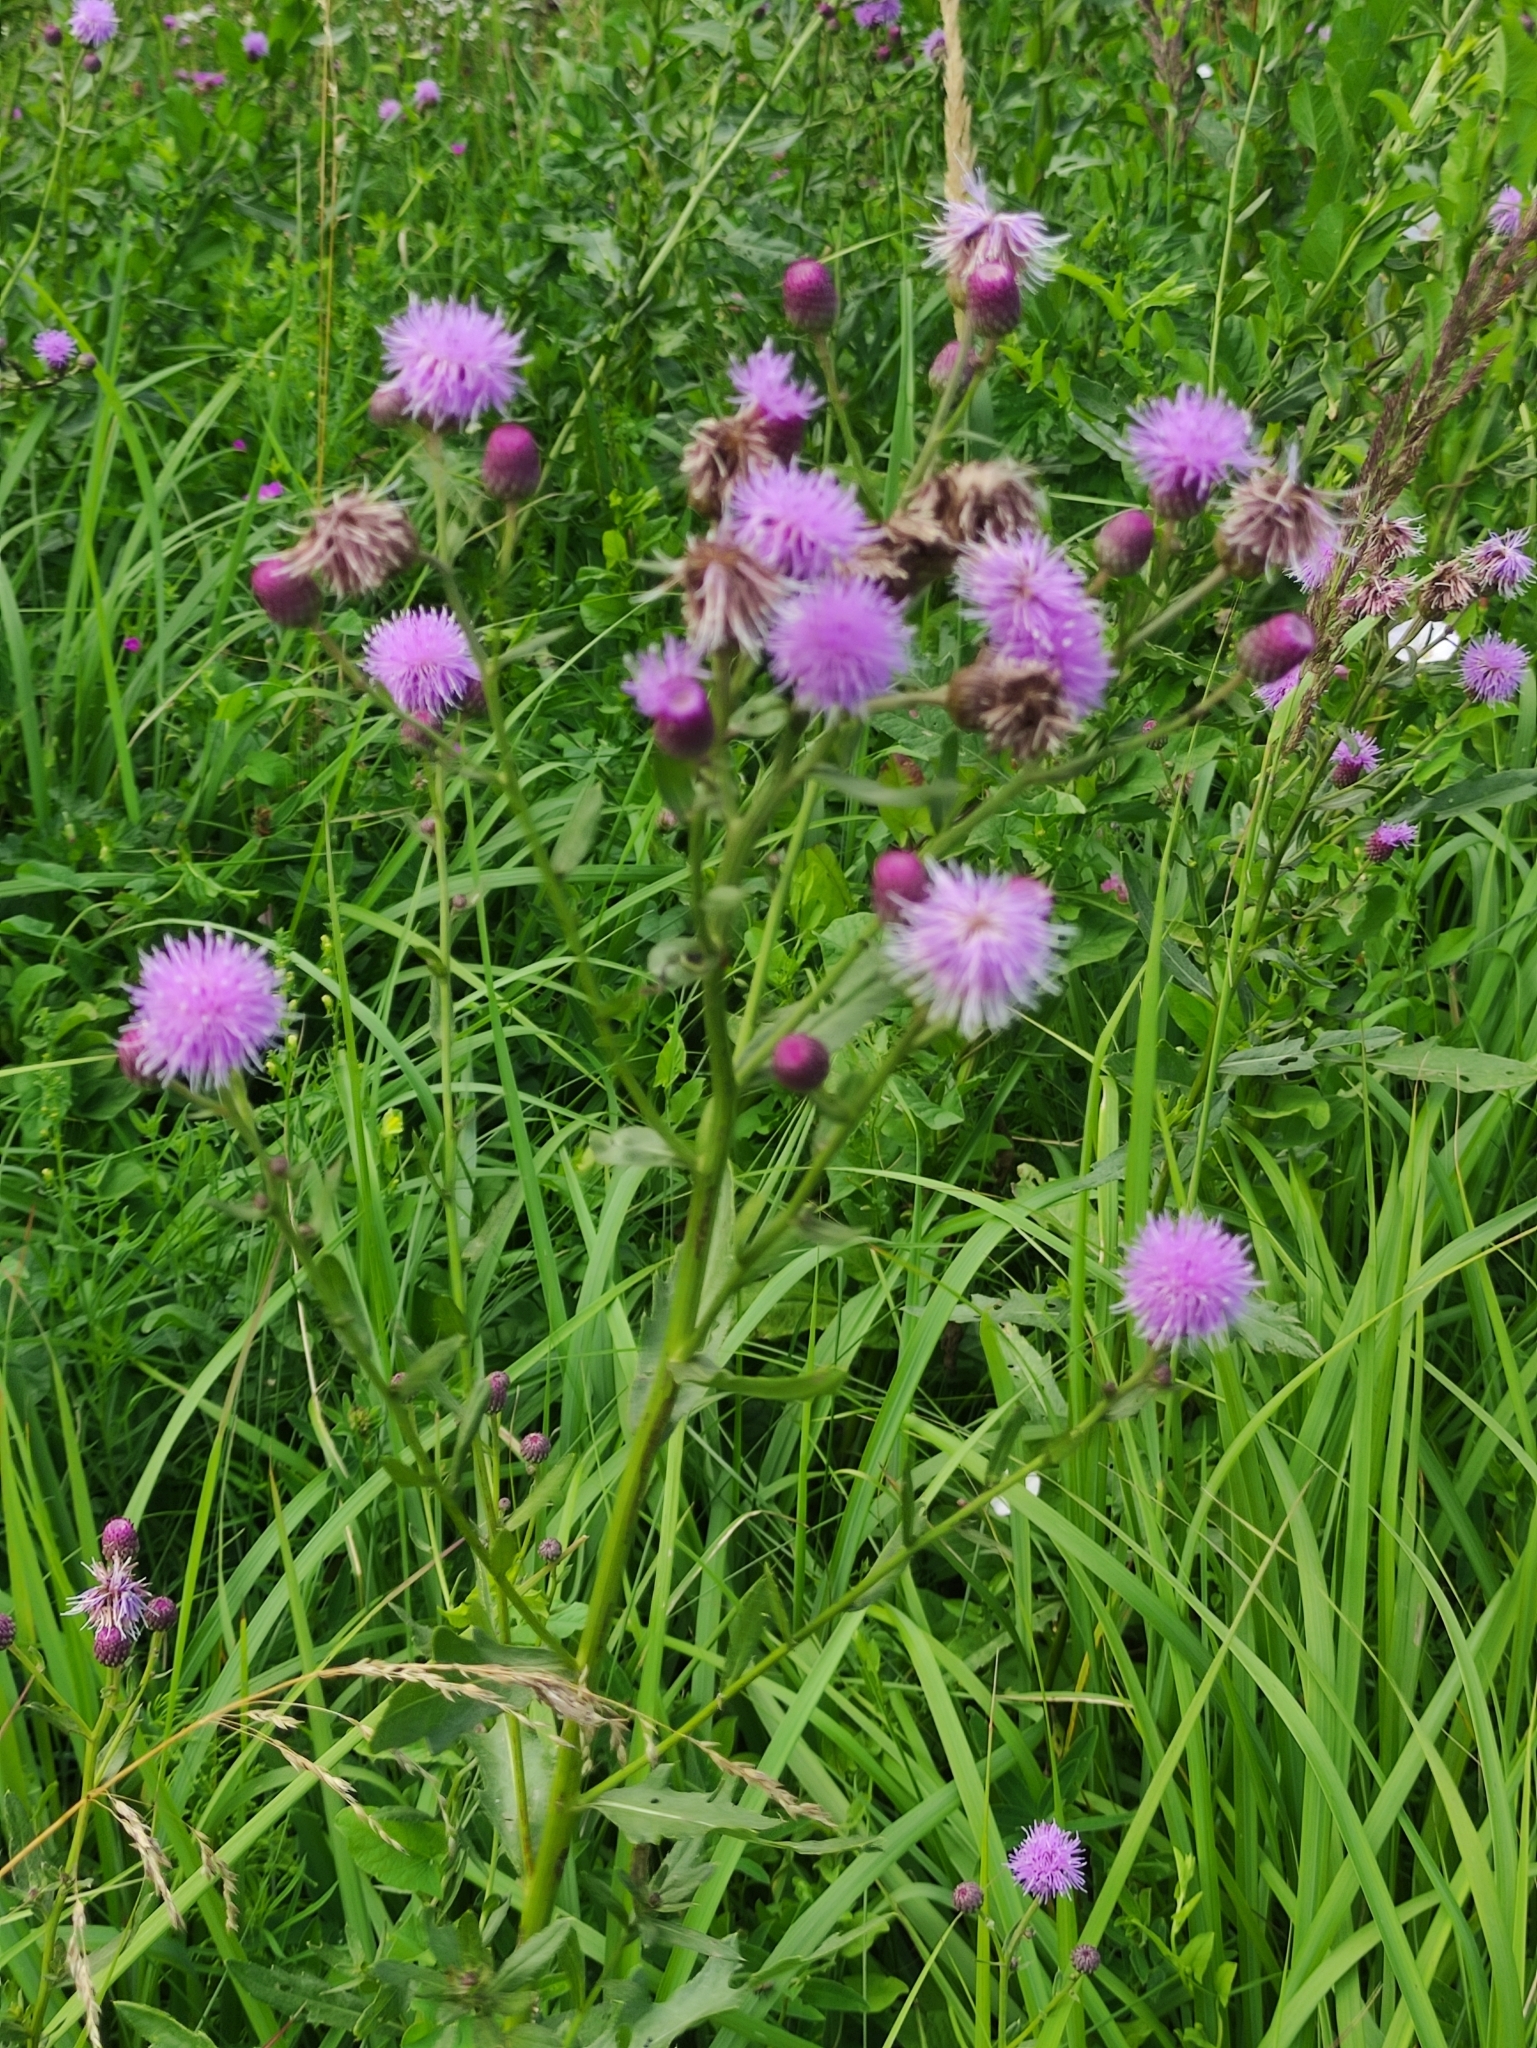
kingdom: Plantae
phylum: Tracheophyta
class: Magnoliopsida
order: Asterales
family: Asteraceae
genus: Cirsium
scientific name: Cirsium arvense
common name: Creeping thistle
